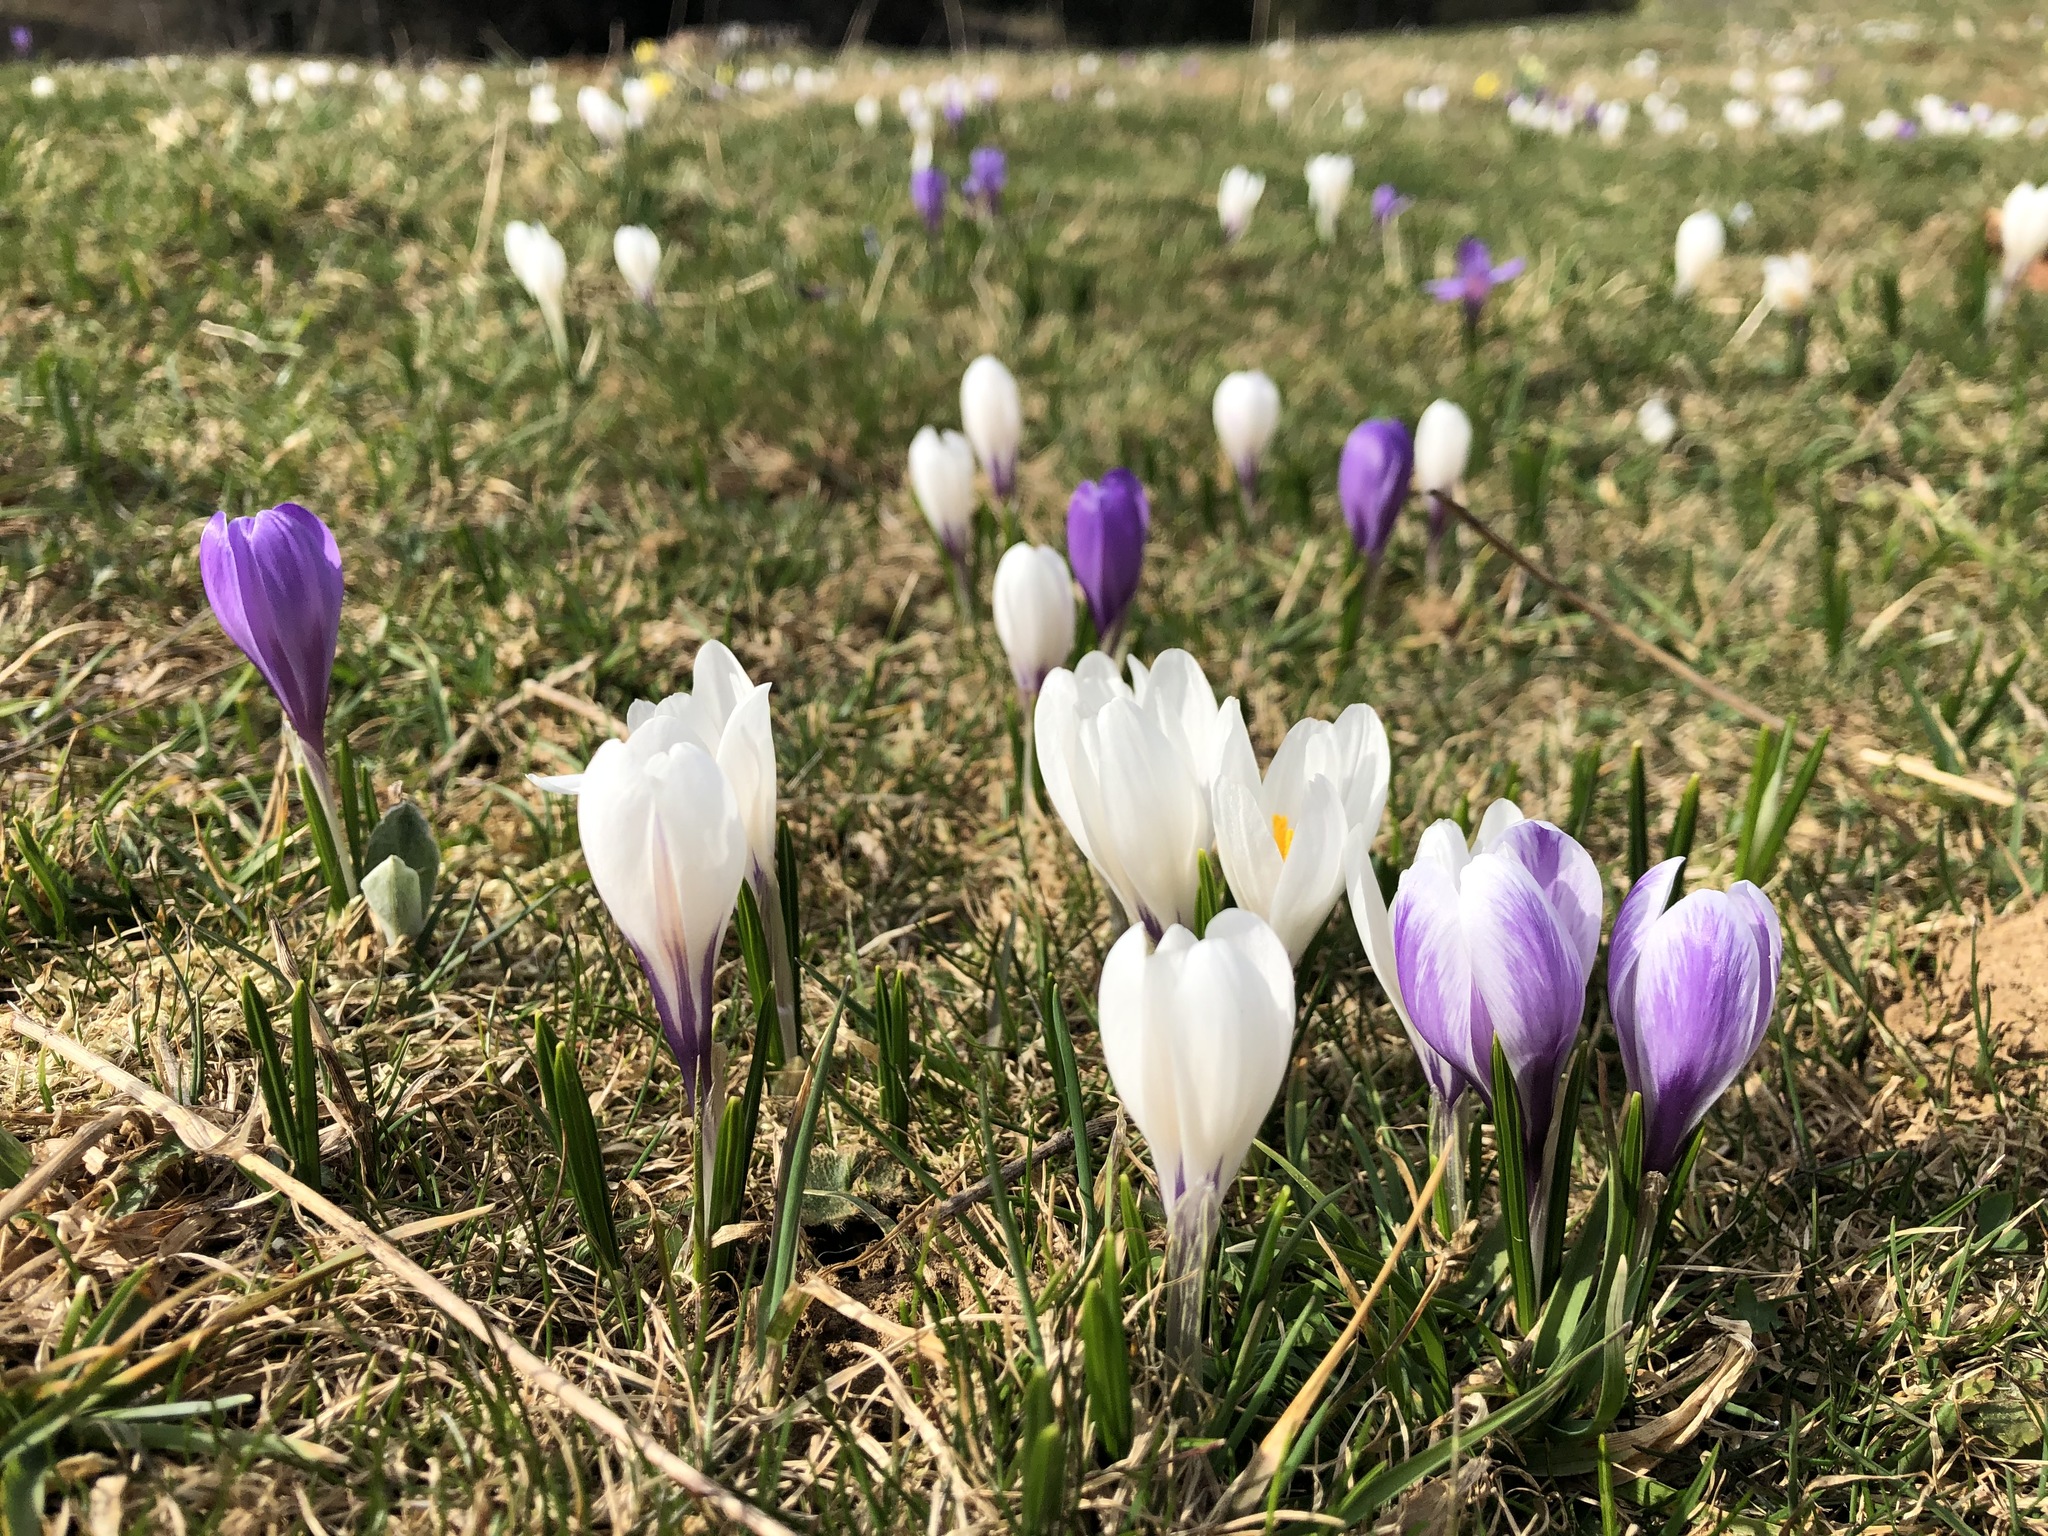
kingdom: Plantae
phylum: Tracheophyta
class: Liliopsida
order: Asparagales
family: Iridaceae
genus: Crocus
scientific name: Crocus vernus
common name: Spring crocus
